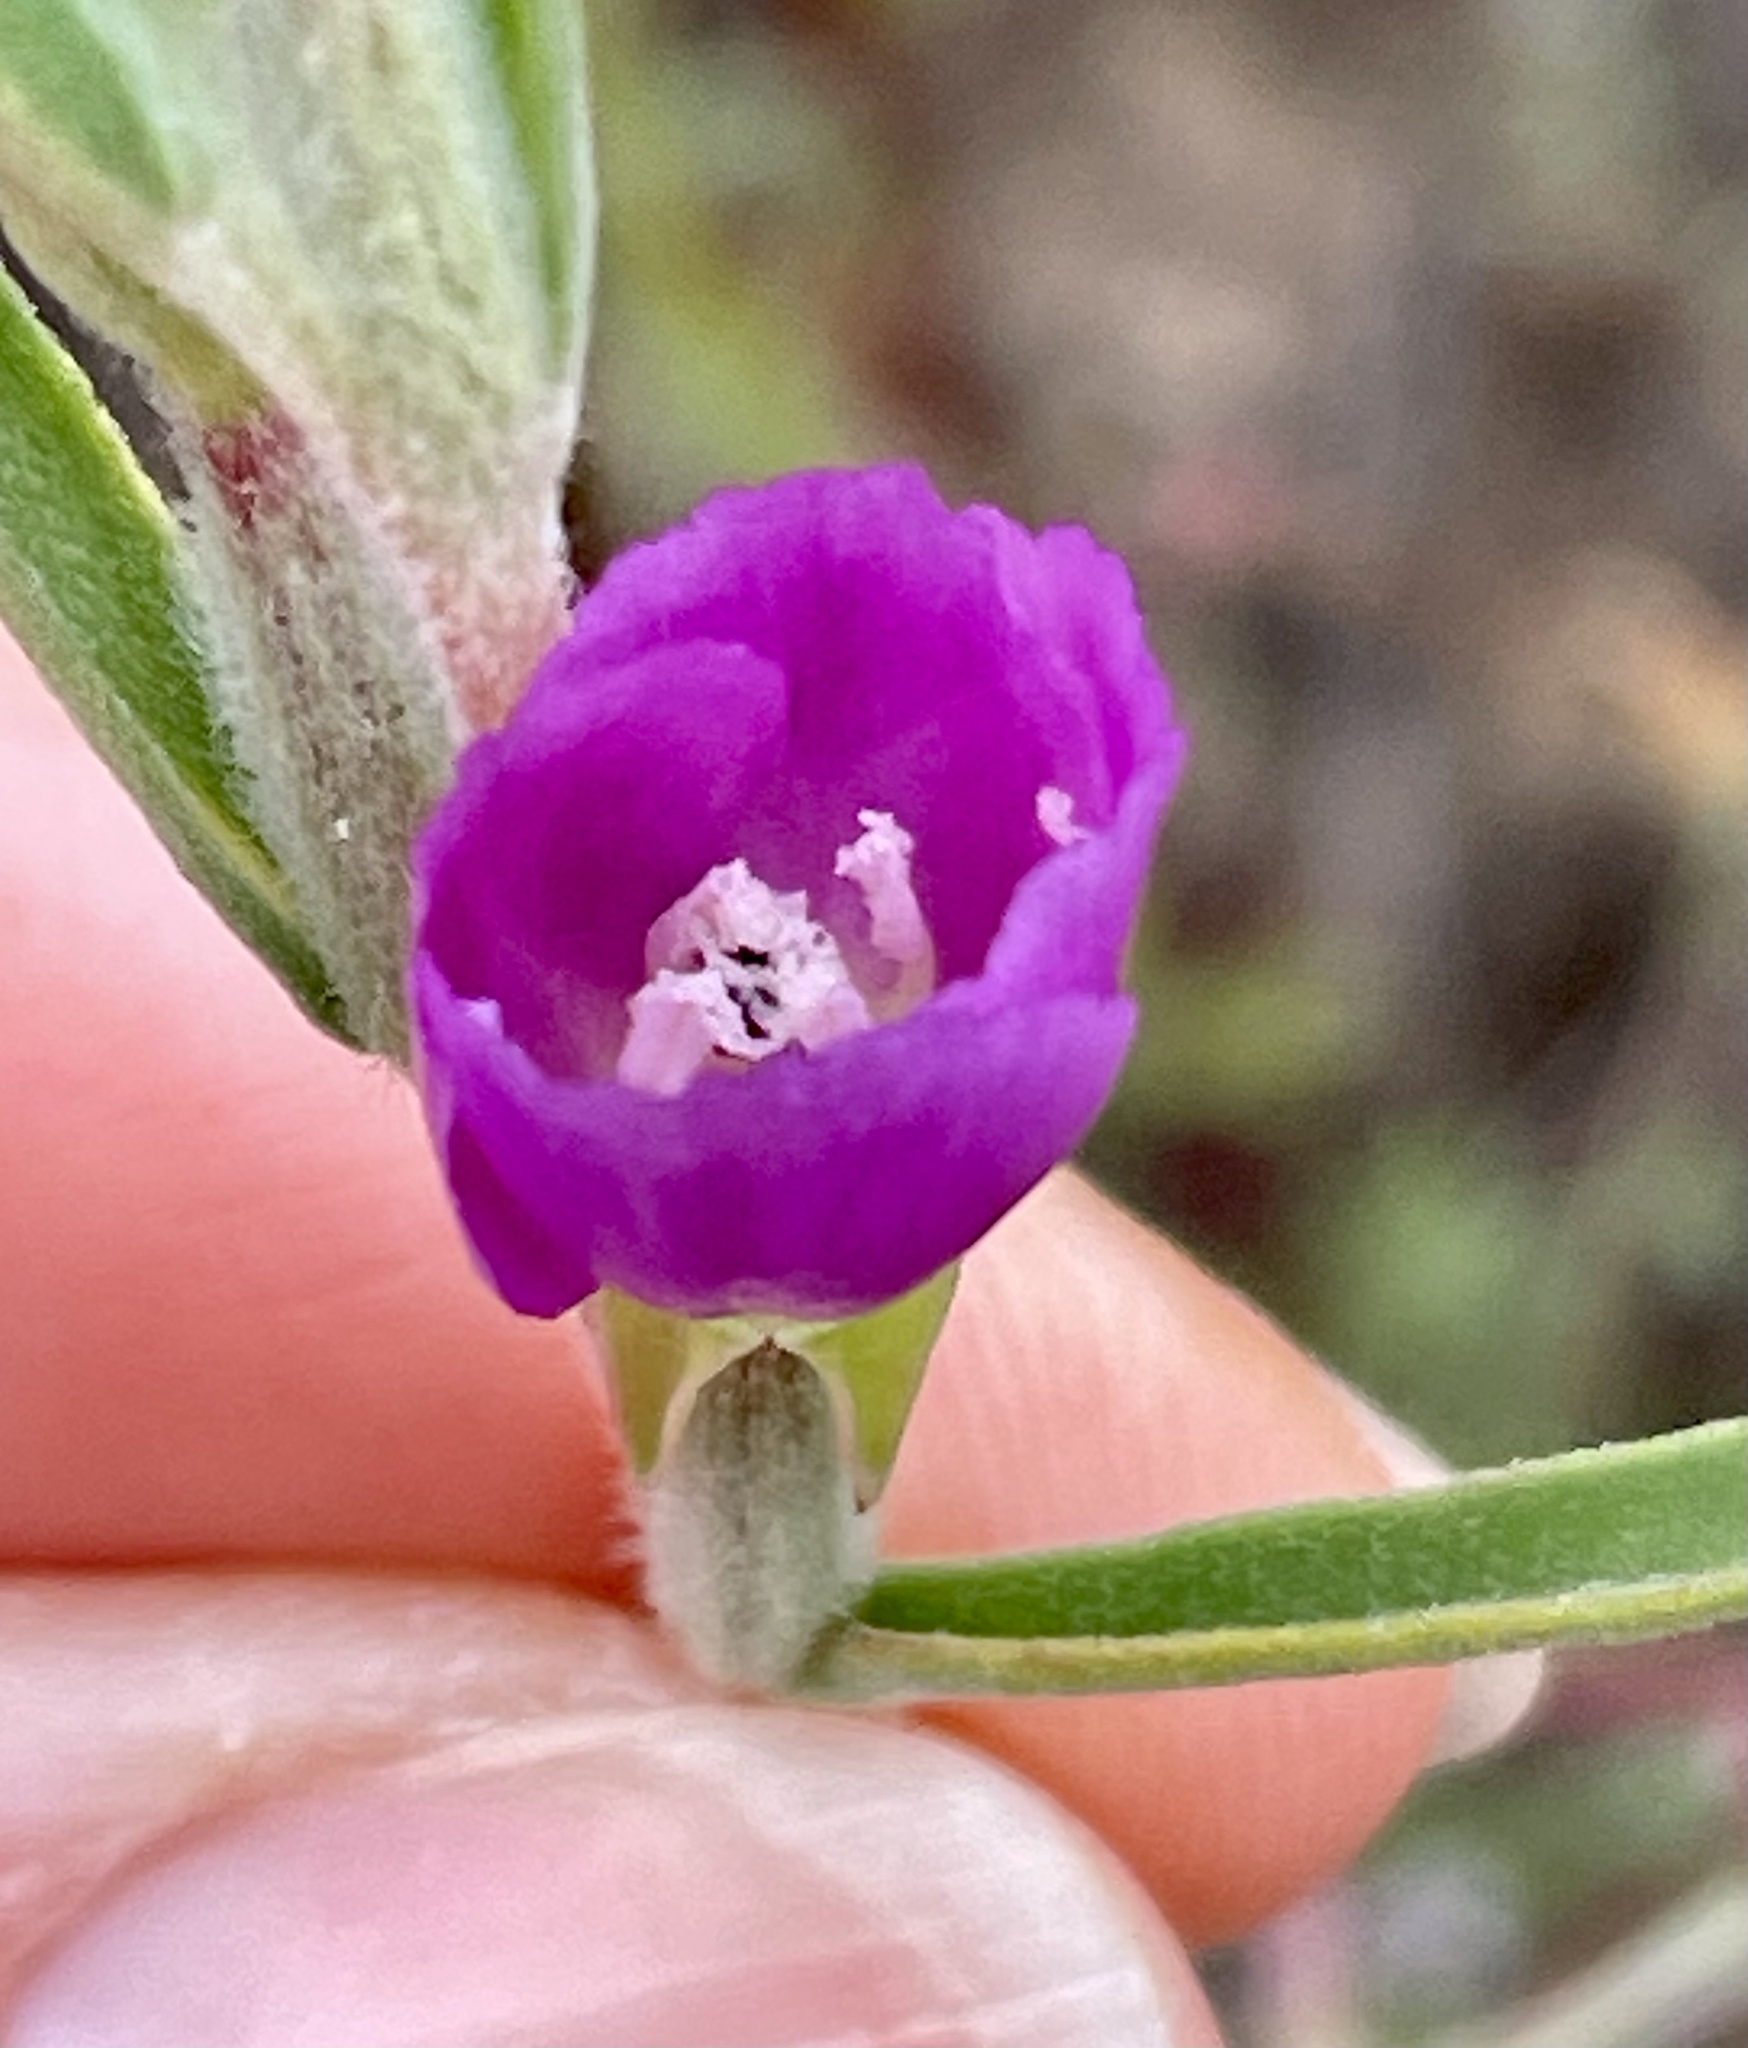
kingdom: Plantae
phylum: Tracheophyta
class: Magnoliopsida
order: Myrtales
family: Onagraceae
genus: Clarkia
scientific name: Clarkia purpurea
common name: Purple clarkia
